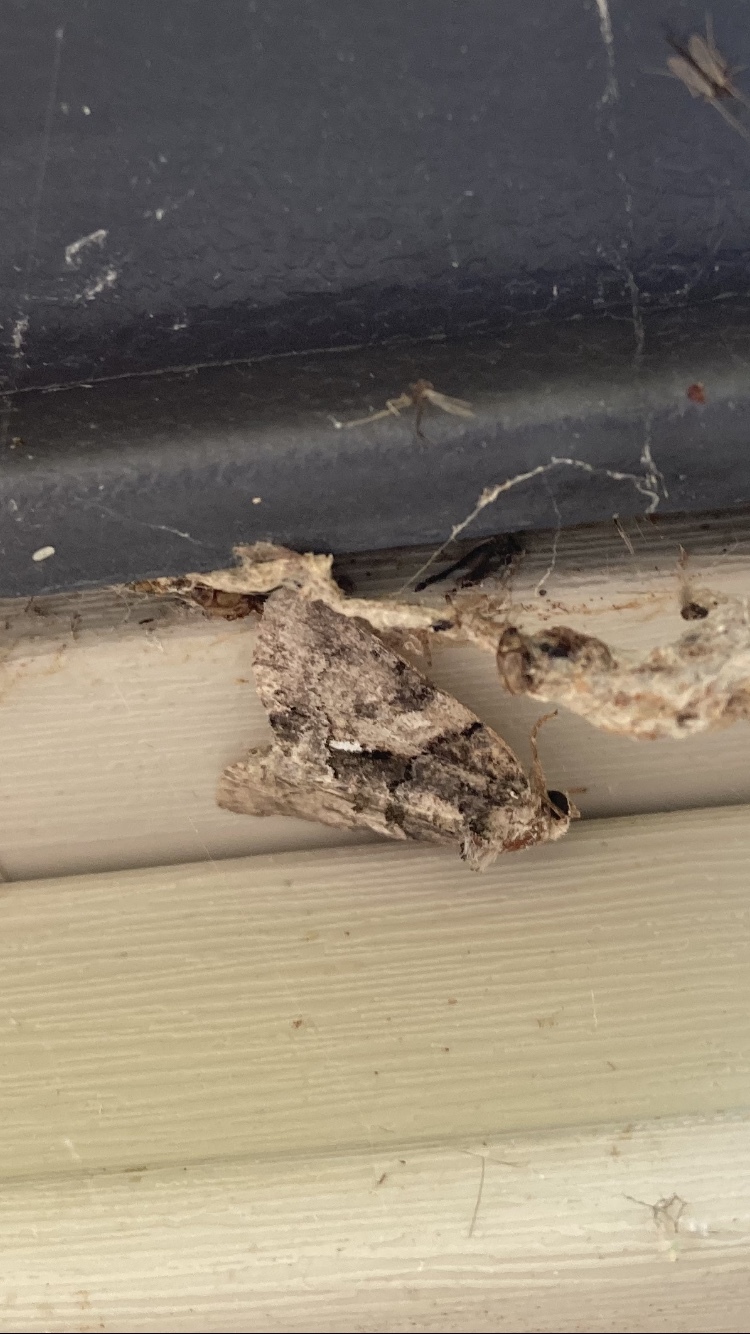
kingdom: Animalia
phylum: Arthropoda
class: Insecta
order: Lepidoptera
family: Noctuidae
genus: Chytonix
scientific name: Chytonix palliatricula
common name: Cloaked marvel
